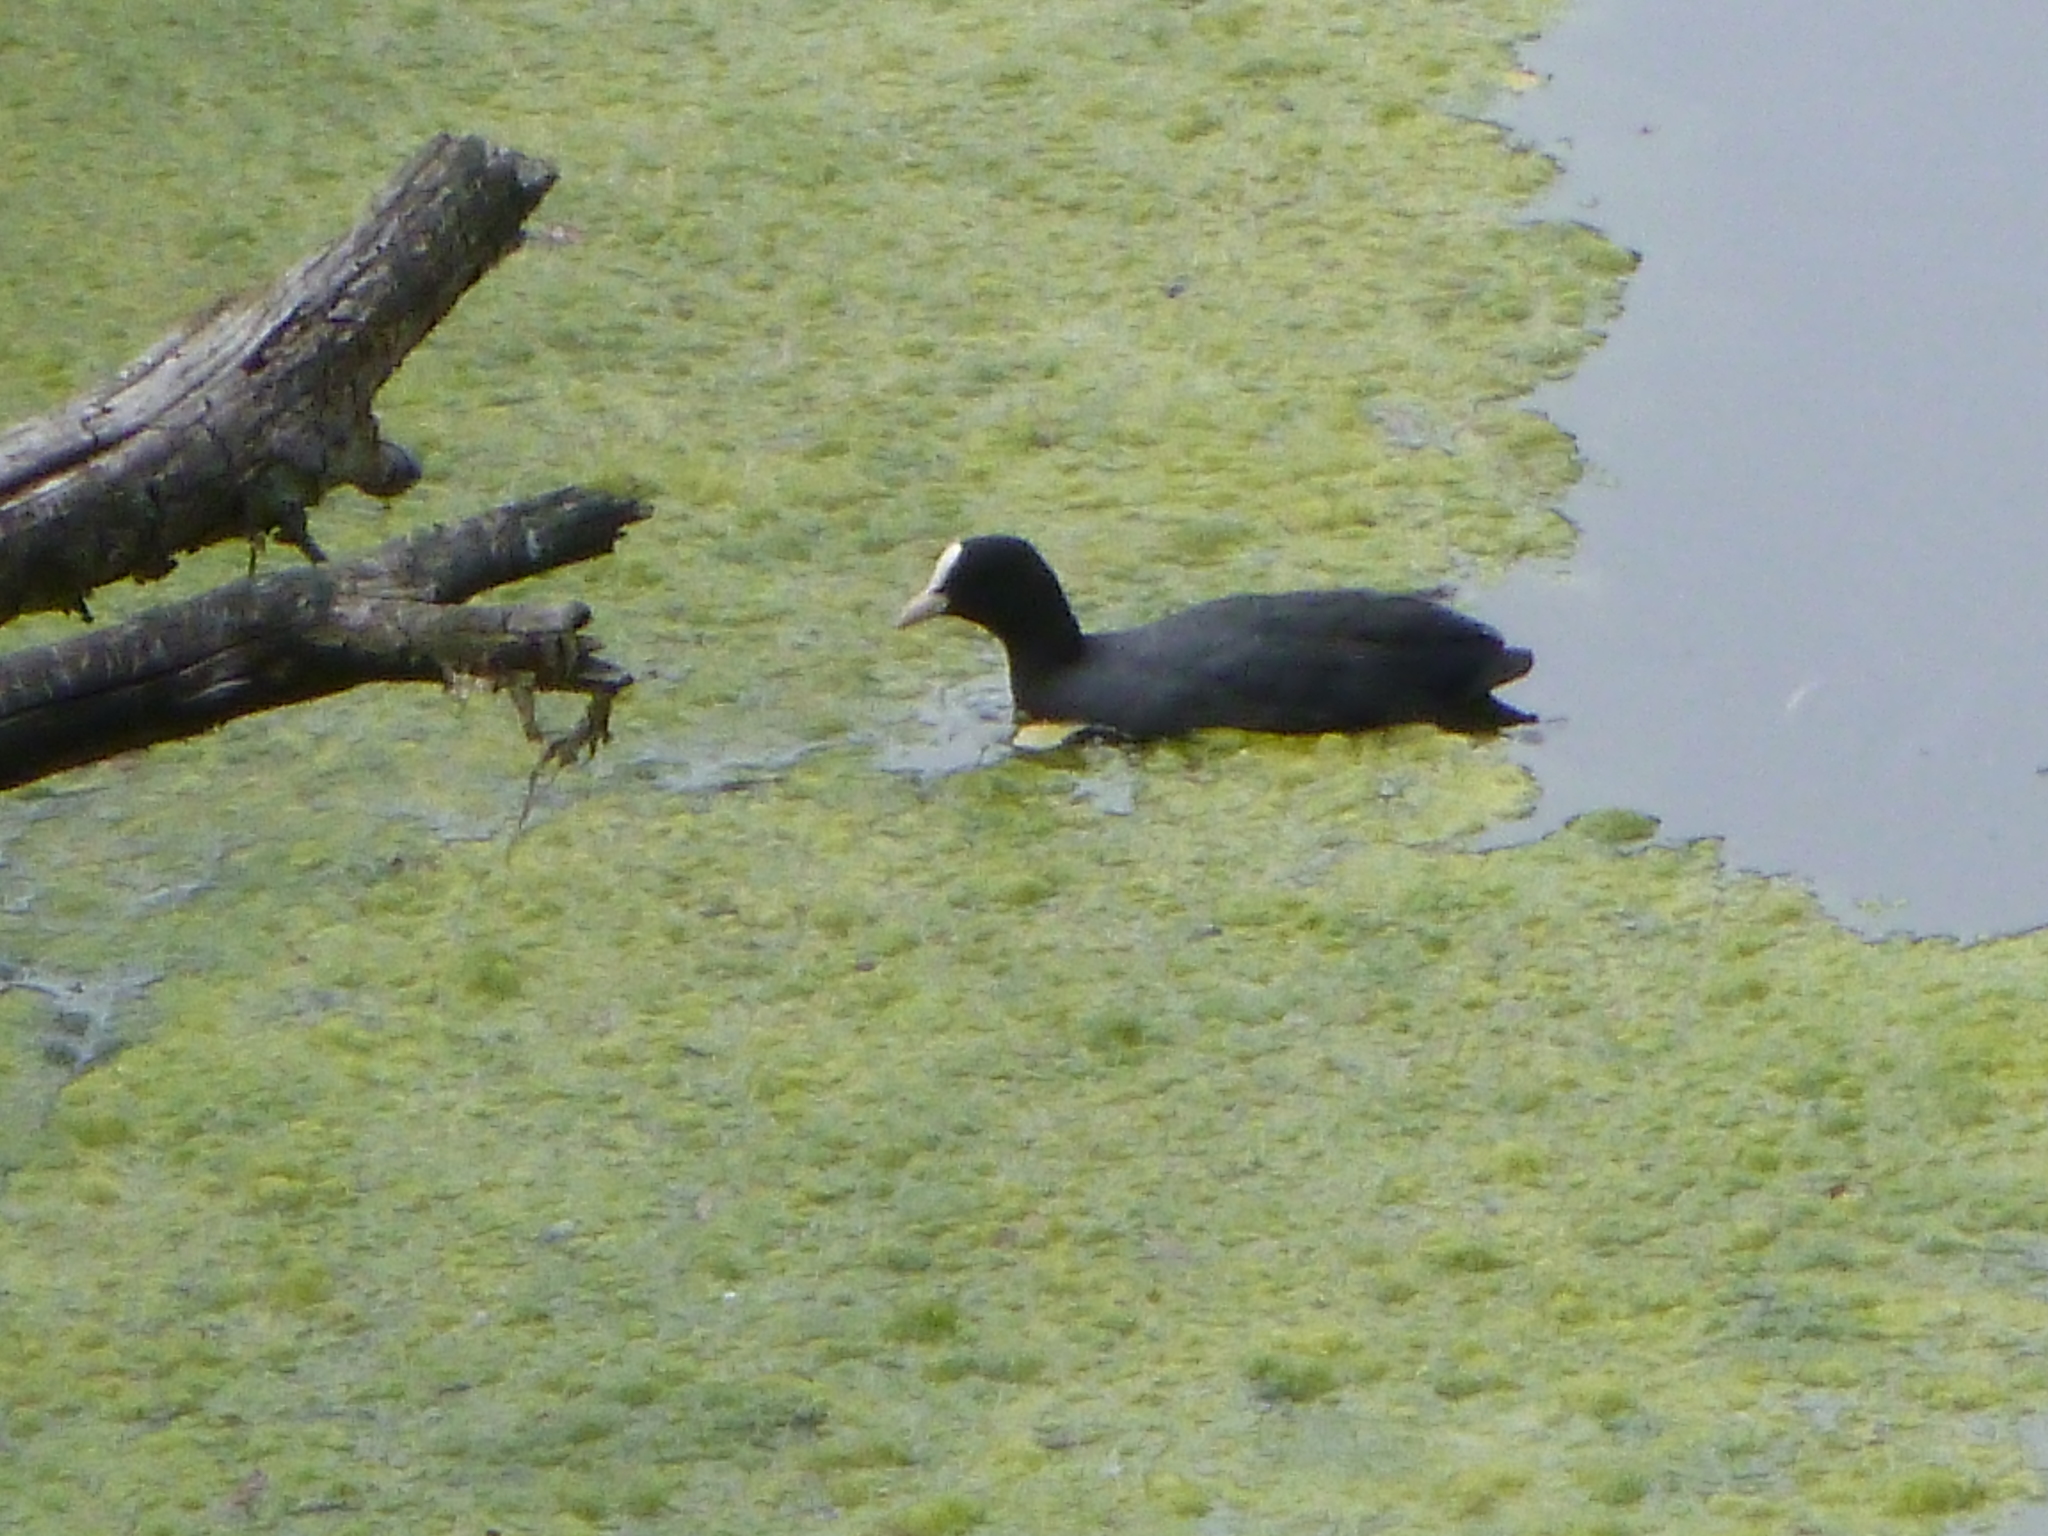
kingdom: Animalia
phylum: Chordata
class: Aves
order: Gruiformes
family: Rallidae
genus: Fulica
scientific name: Fulica atra
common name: Eurasian coot
